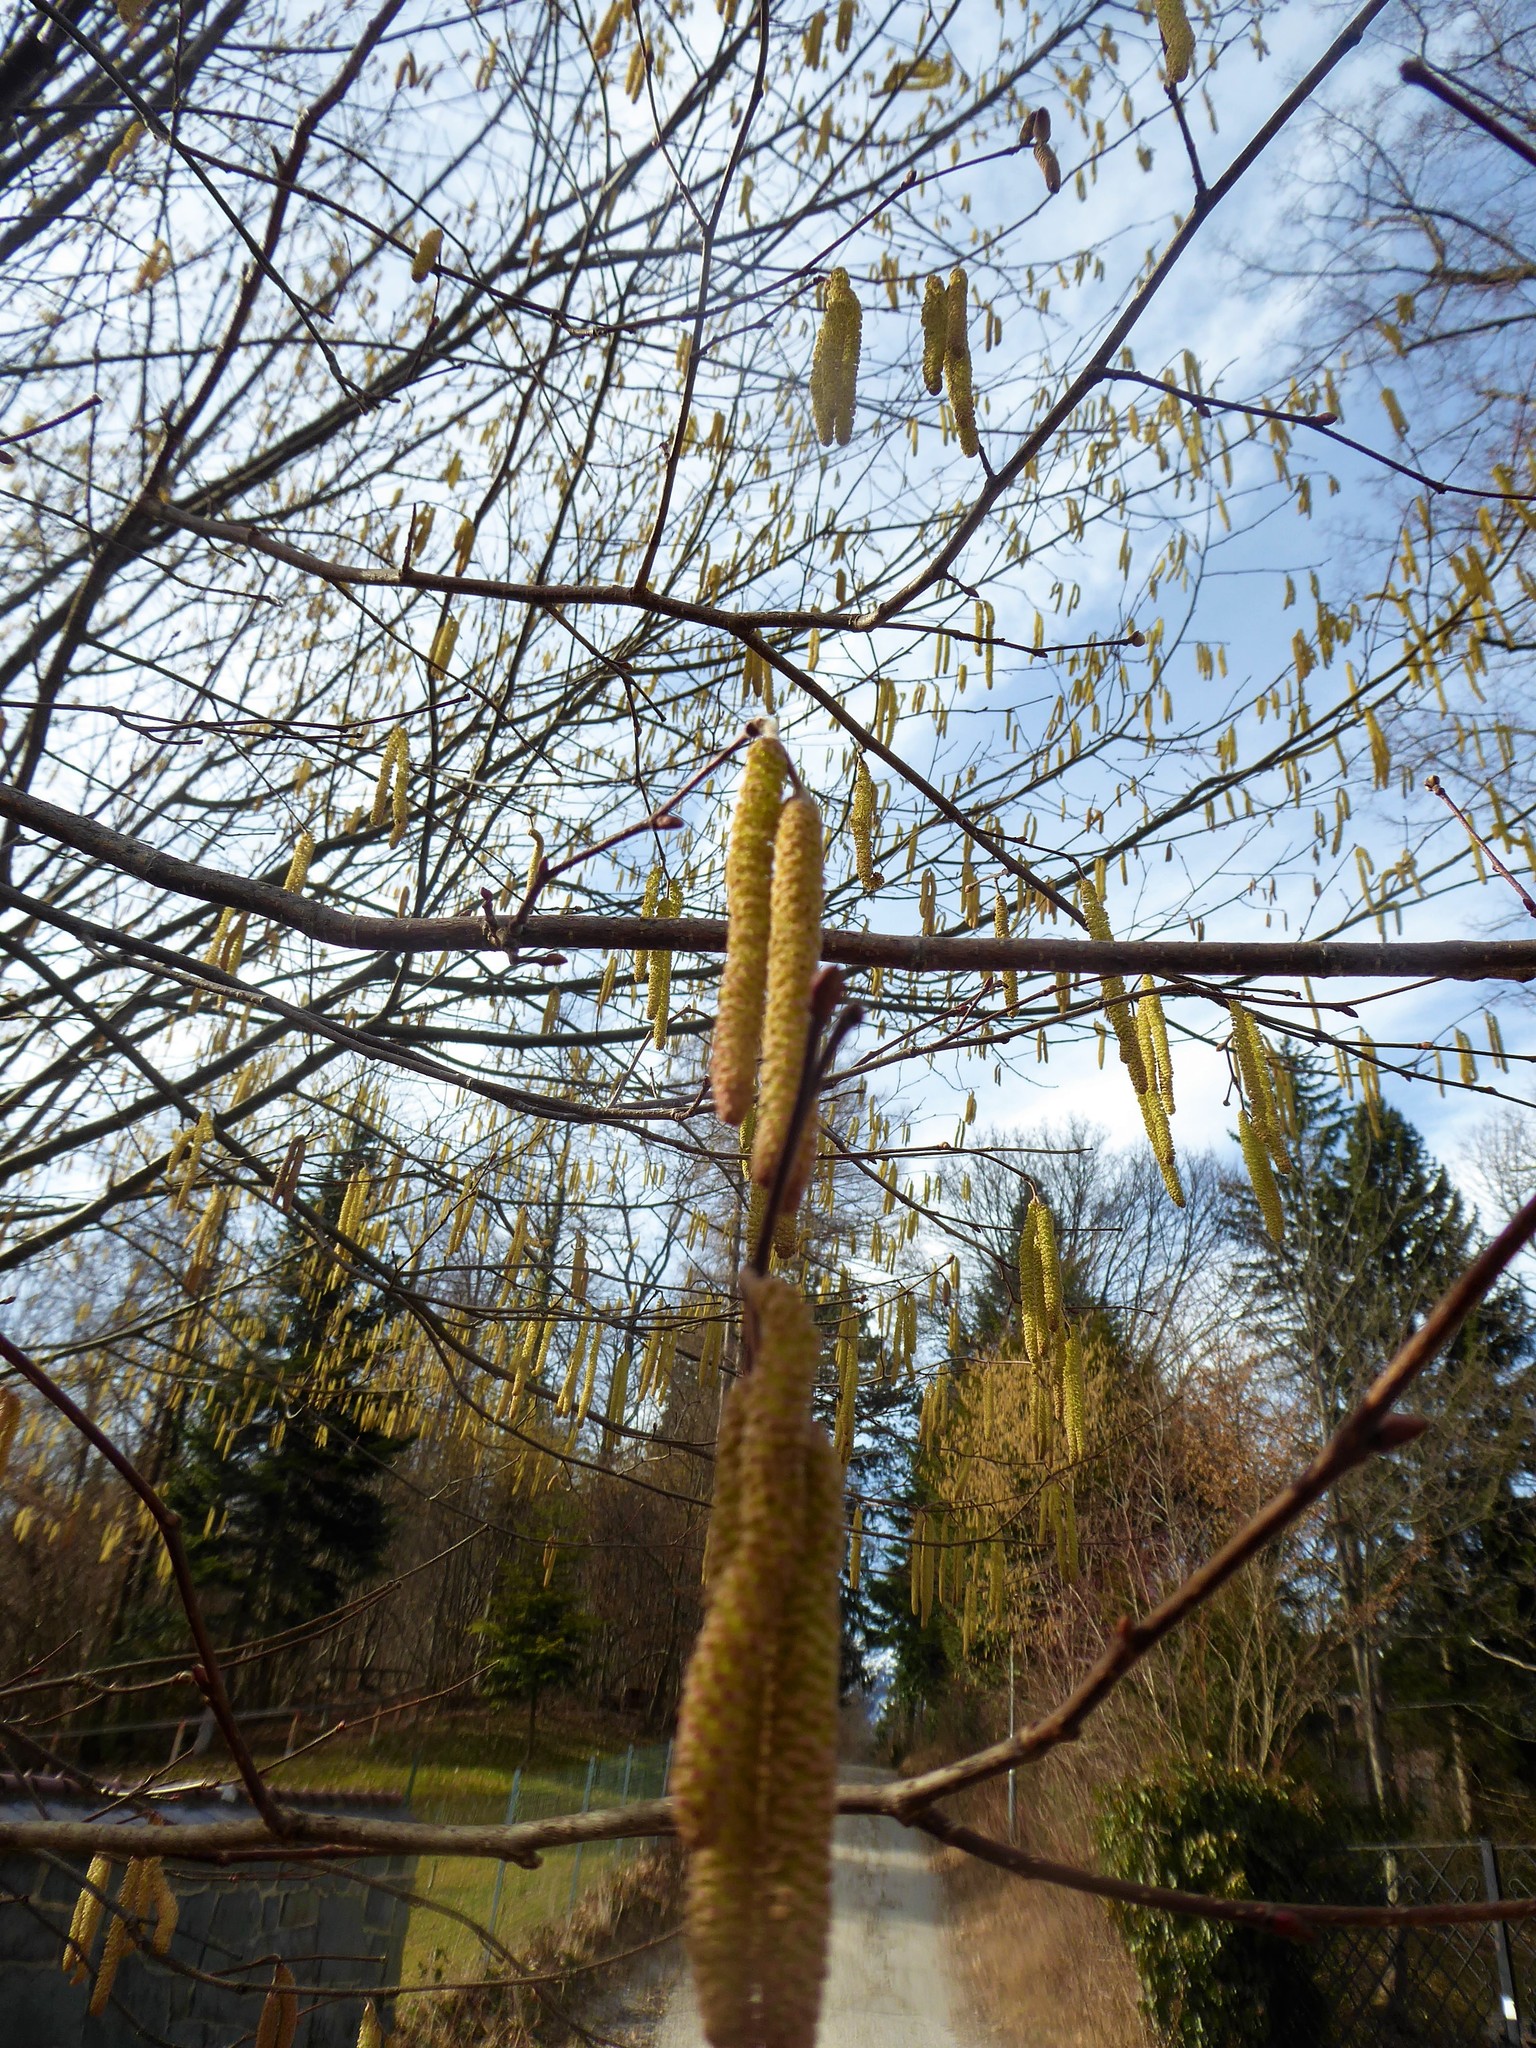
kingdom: Plantae
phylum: Tracheophyta
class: Magnoliopsida
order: Fagales
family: Betulaceae
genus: Corylus
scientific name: Corylus avellana
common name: European hazel
